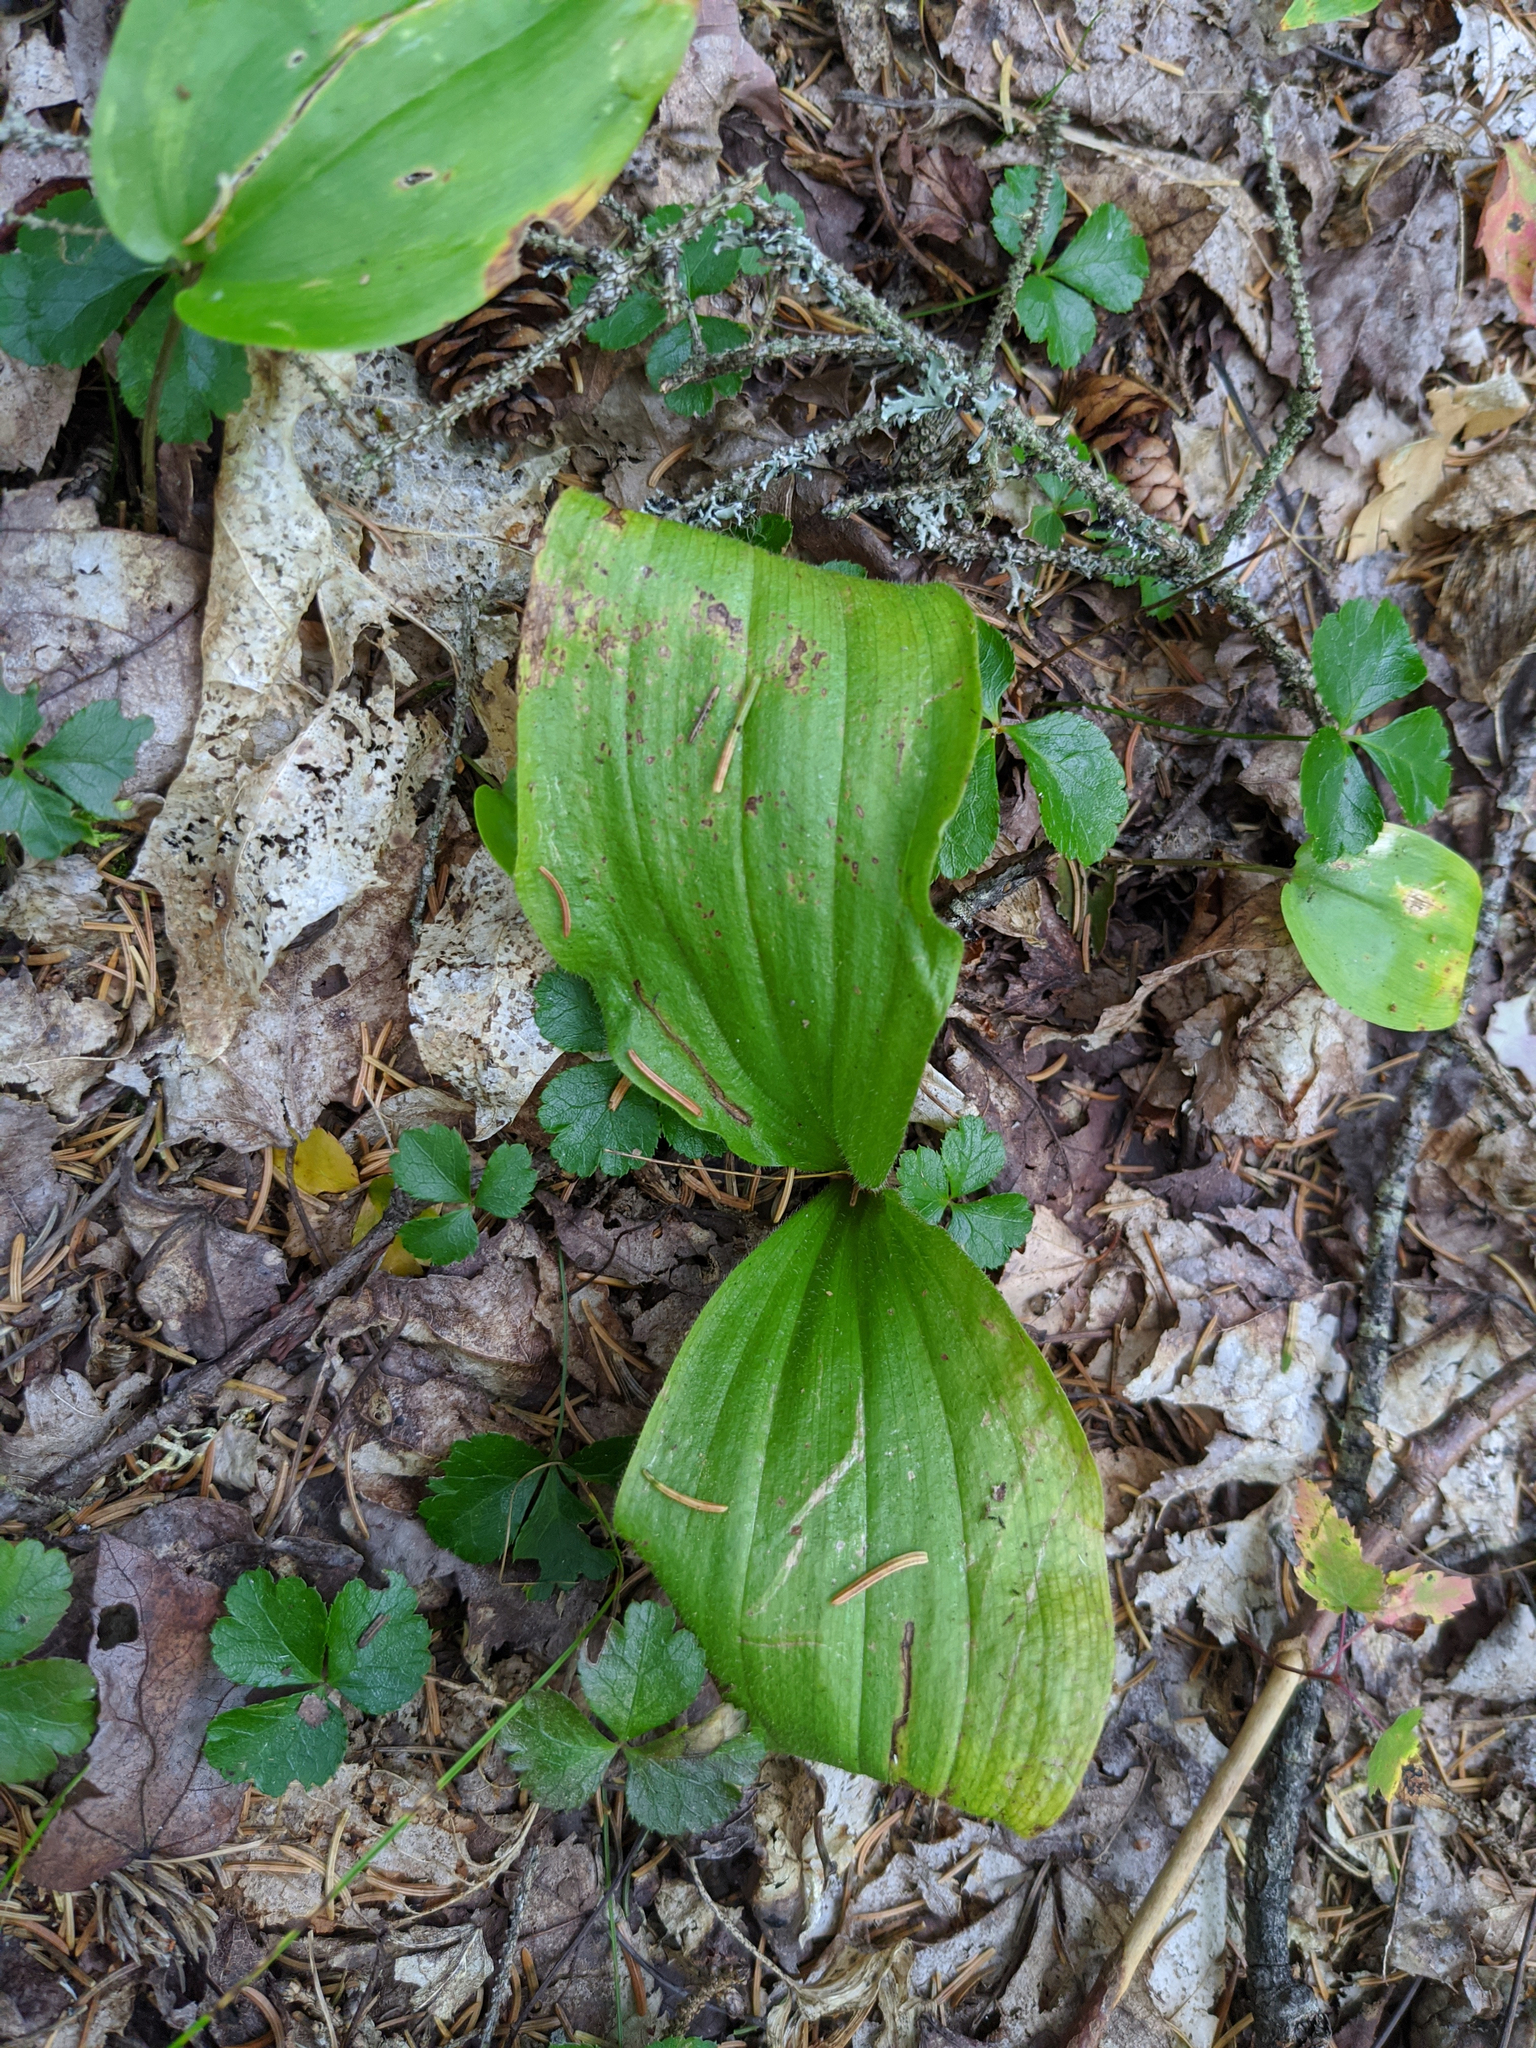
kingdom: Plantae
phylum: Tracheophyta
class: Liliopsida
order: Asparagales
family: Asparagaceae
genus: Maianthemum
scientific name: Maianthemum canadense
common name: False lily-of-the-valley
